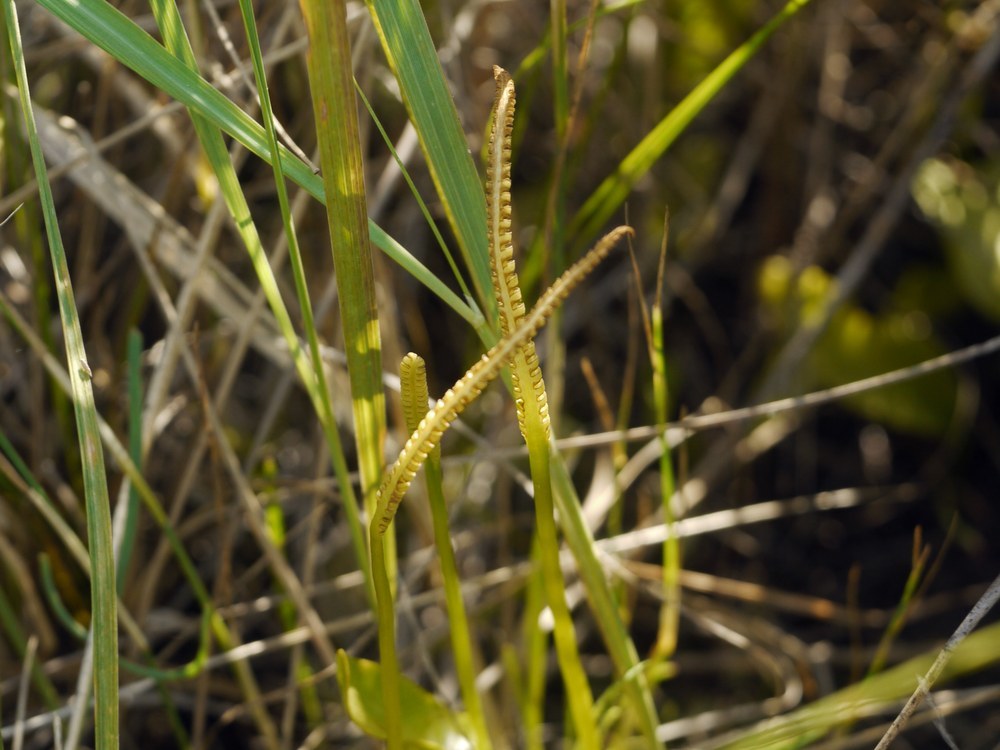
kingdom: Plantae
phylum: Tracheophyta
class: Polypodiopsida
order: Ophioglossales
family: Ophioglossaceae
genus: Ophioglossum
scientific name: Ophioglossum vulgatum
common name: Adder's-tongue
